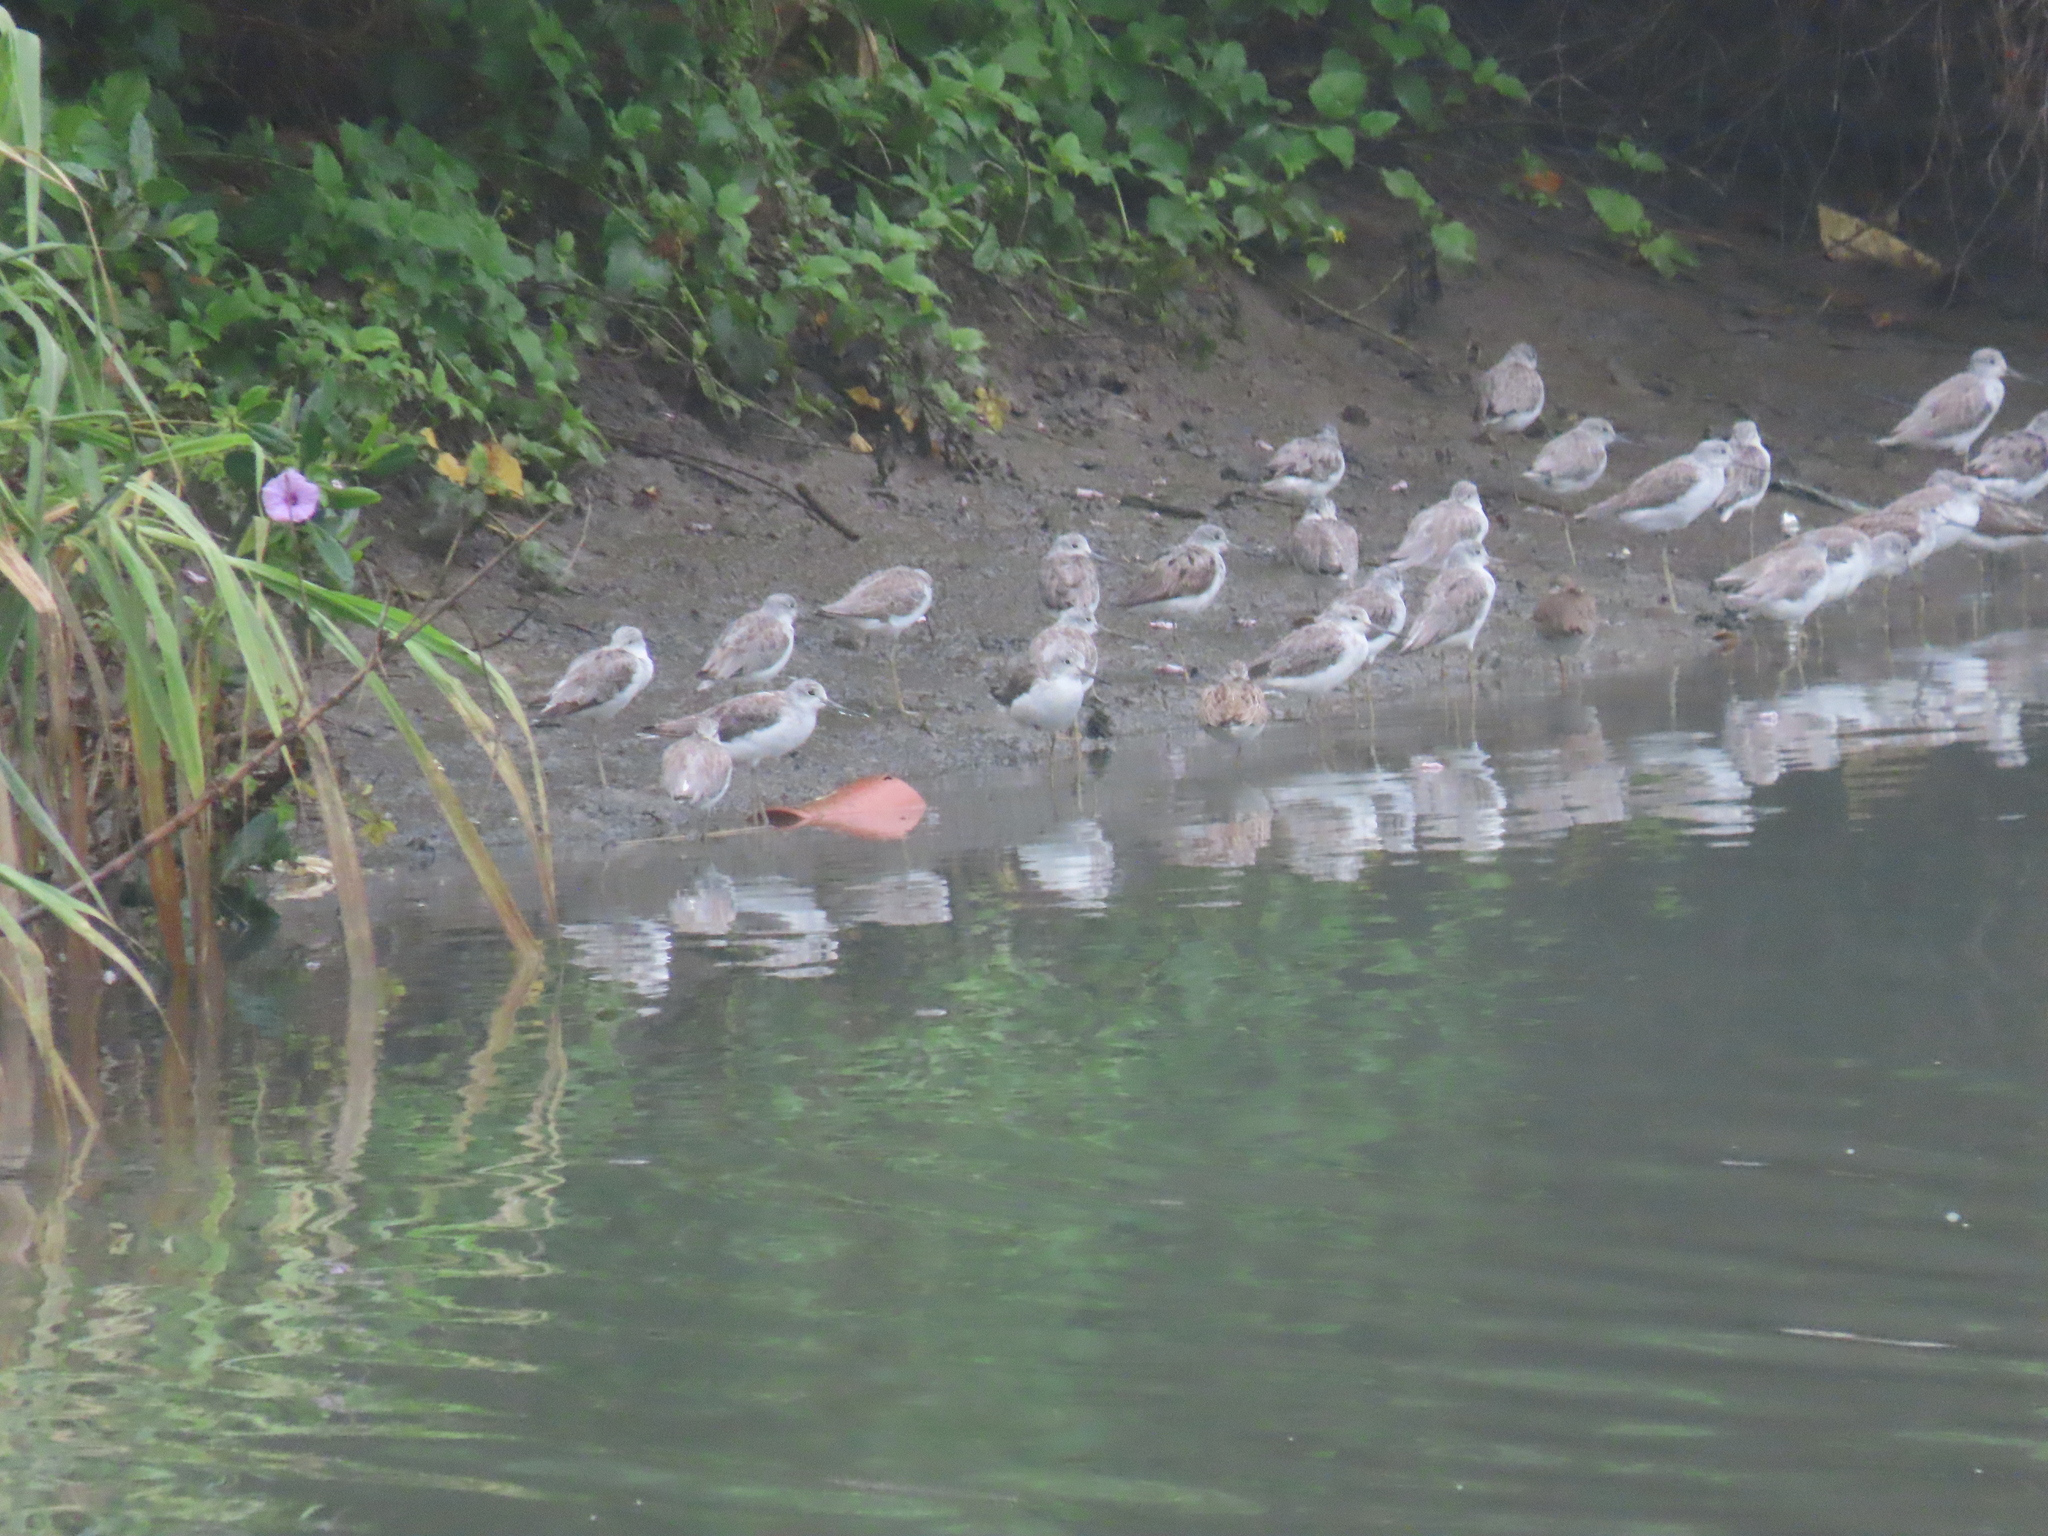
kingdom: Animalia
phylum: Chordata
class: Aves
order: Charadriiformes
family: Scolopacidae
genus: Tringa
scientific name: Tringa nebularia
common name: Common greenshank
